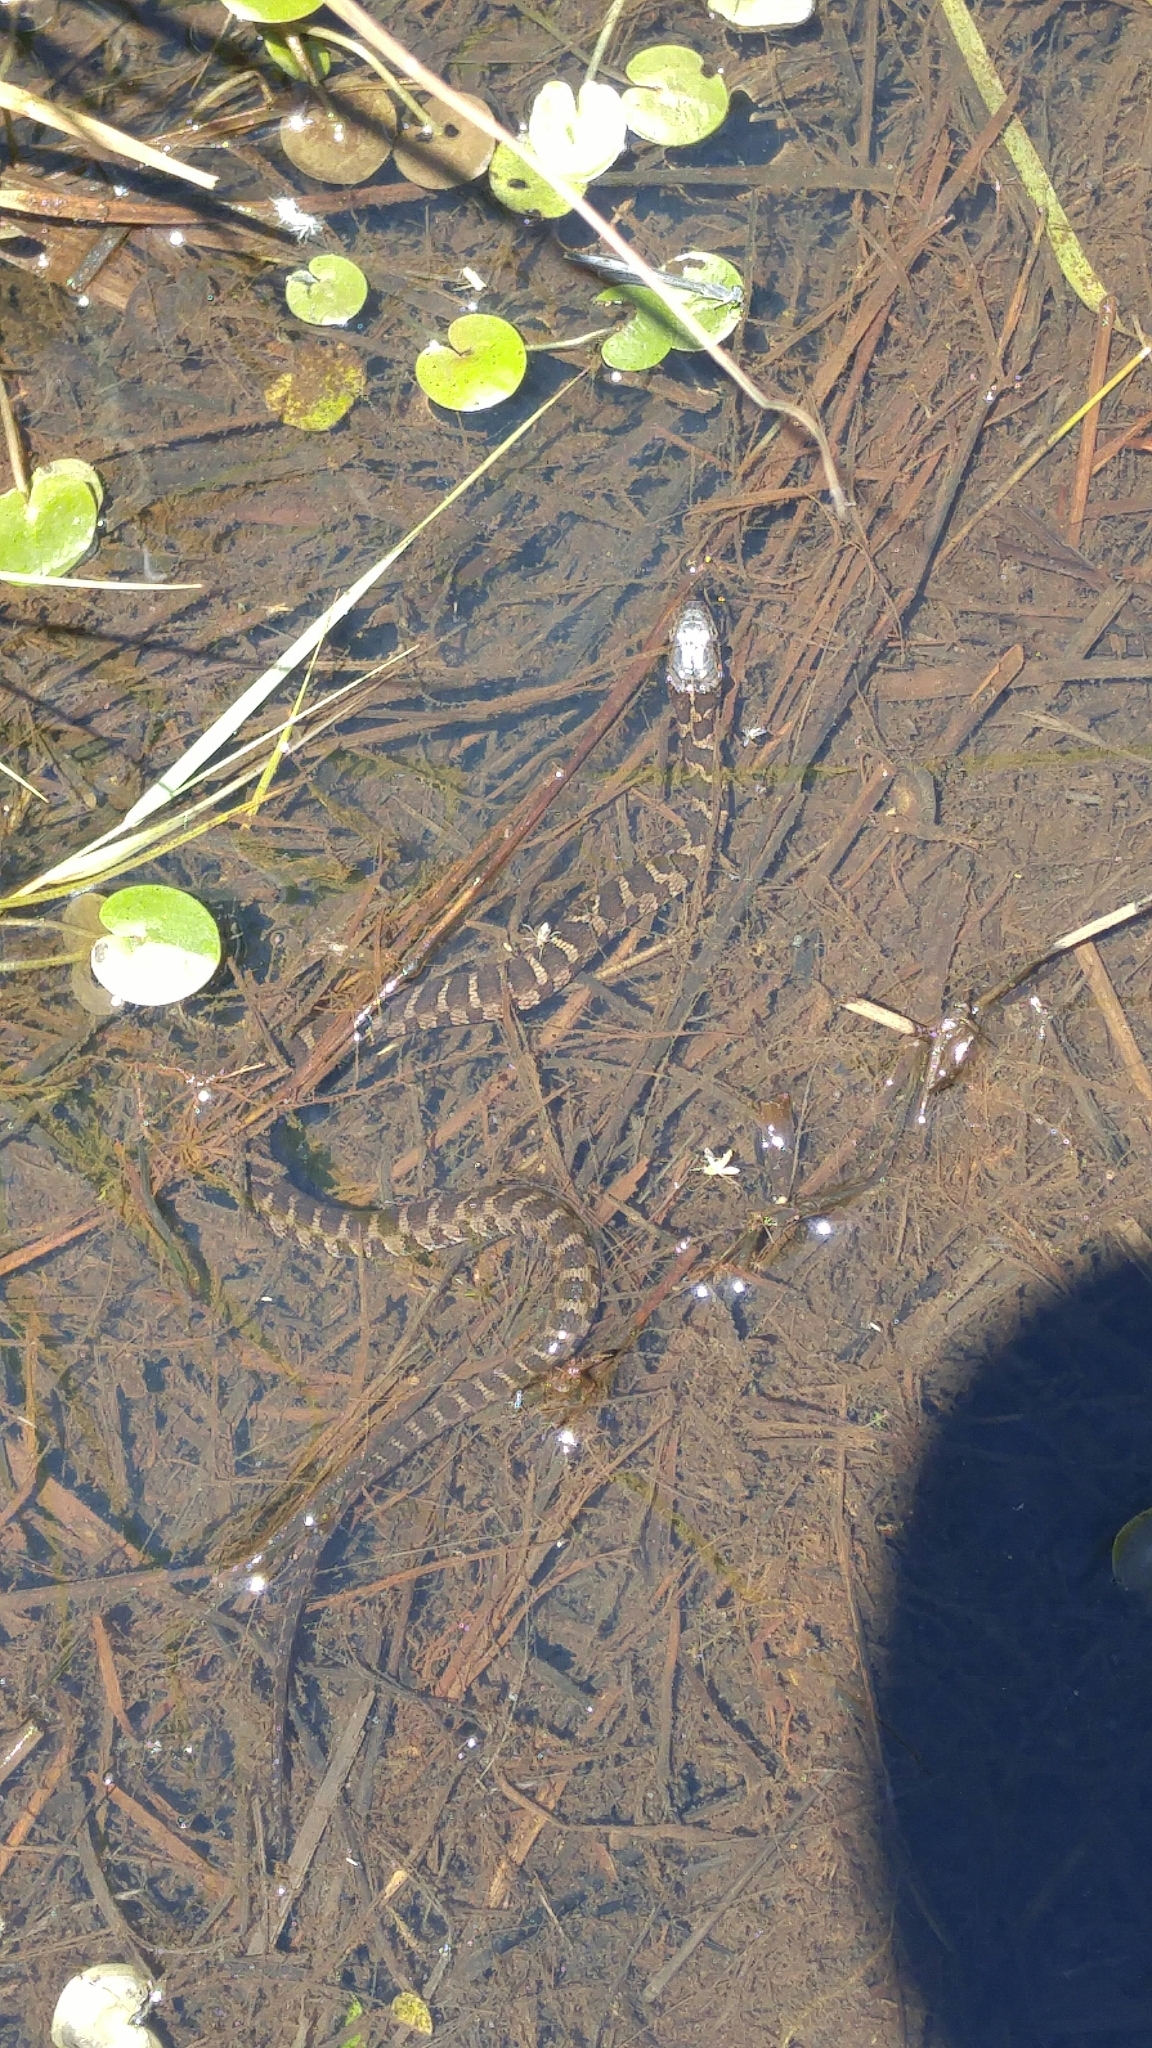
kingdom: Animalia
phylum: Chordata
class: Squamata
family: Colubridae
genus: Nerodia
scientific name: Nerodia sipedon
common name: Northern water snake
